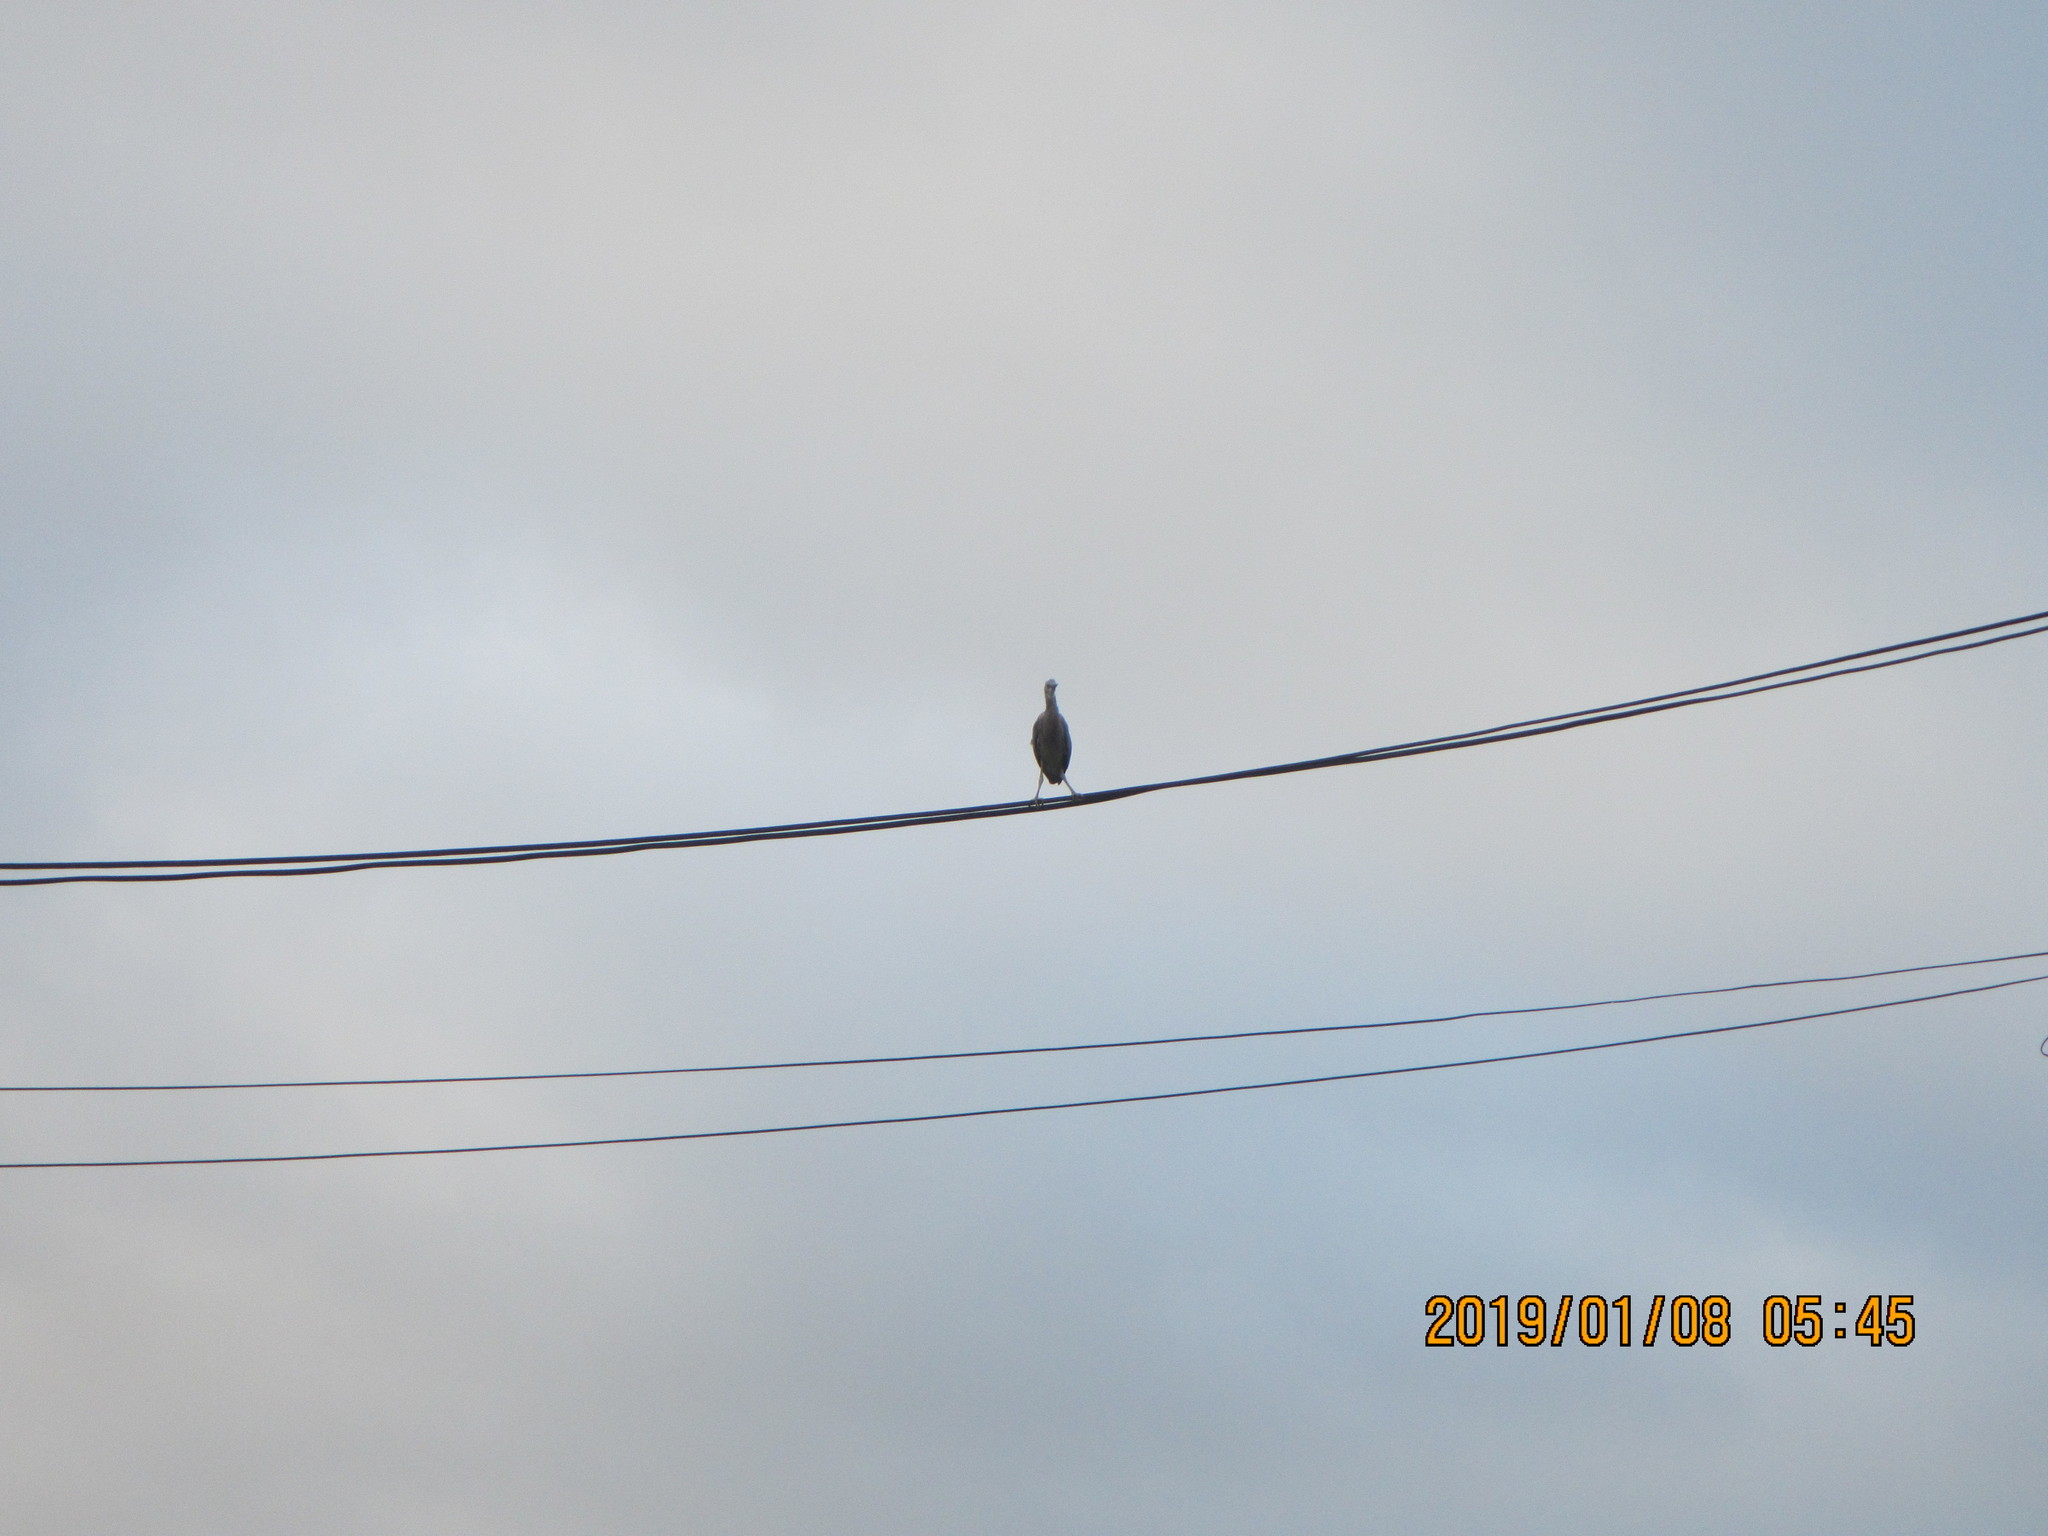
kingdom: Animalia
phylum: Chordata
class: Aves
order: Pelecaniformes
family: Ardeidae
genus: Egretta
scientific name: Egretta novaehollandiae
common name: White-faced heron
